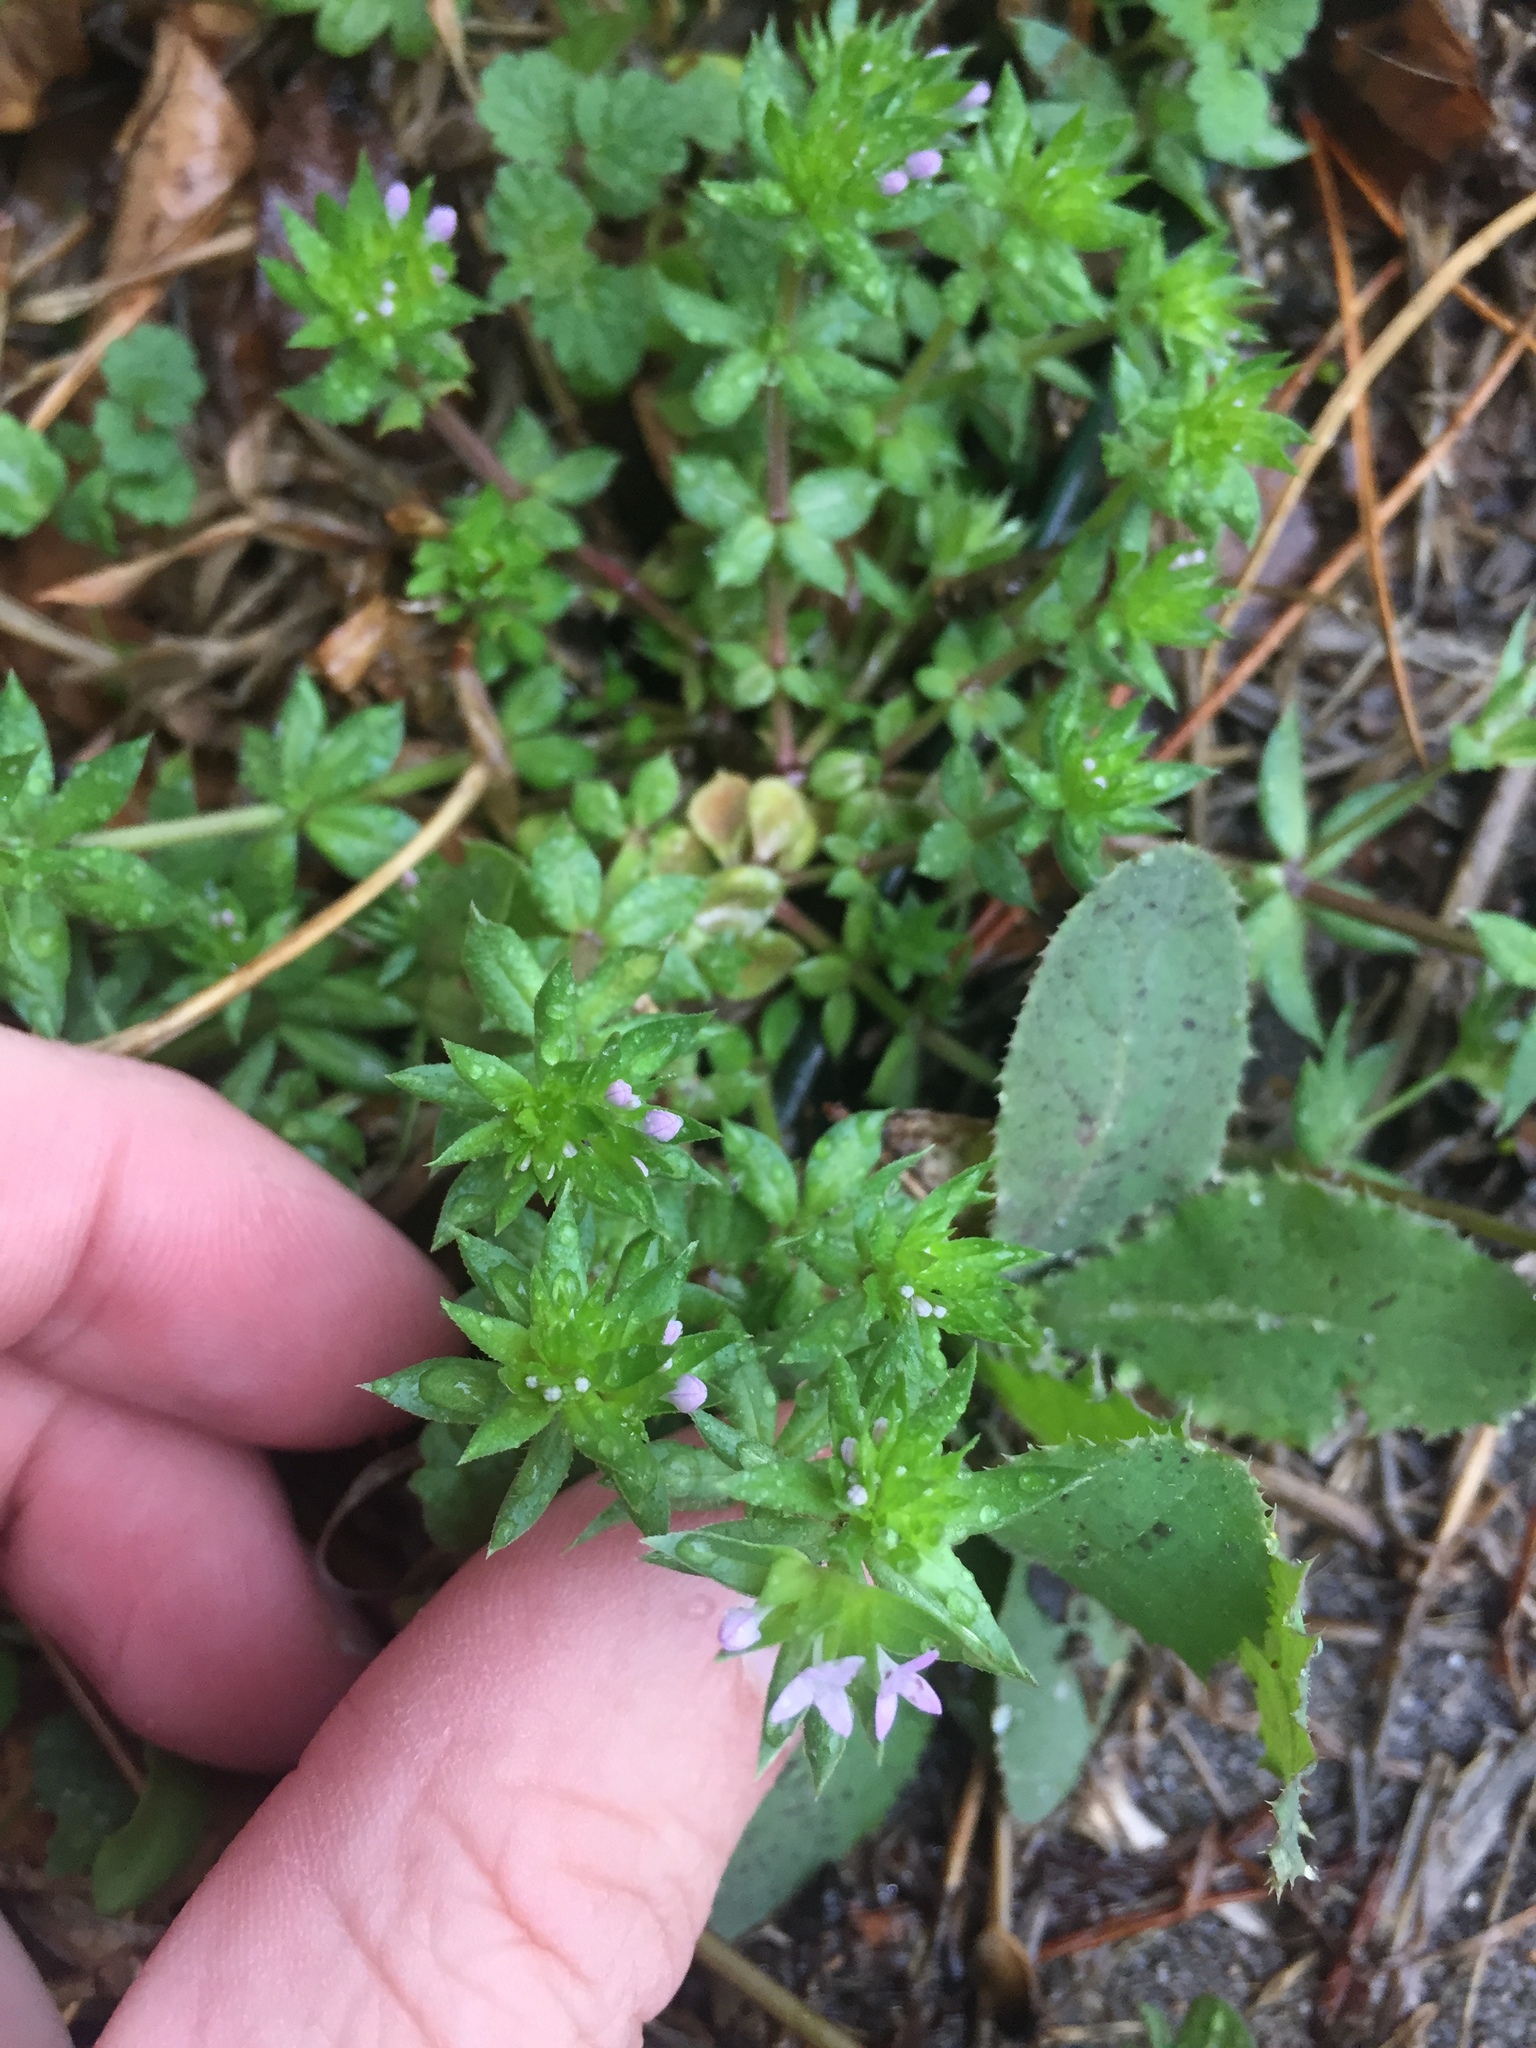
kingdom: Plantae
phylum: Tracheophyta
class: Magnoliopsida
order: Gentianales
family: Rubiaceae
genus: Sherardia
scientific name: Sherardia arvensis
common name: Field madder
